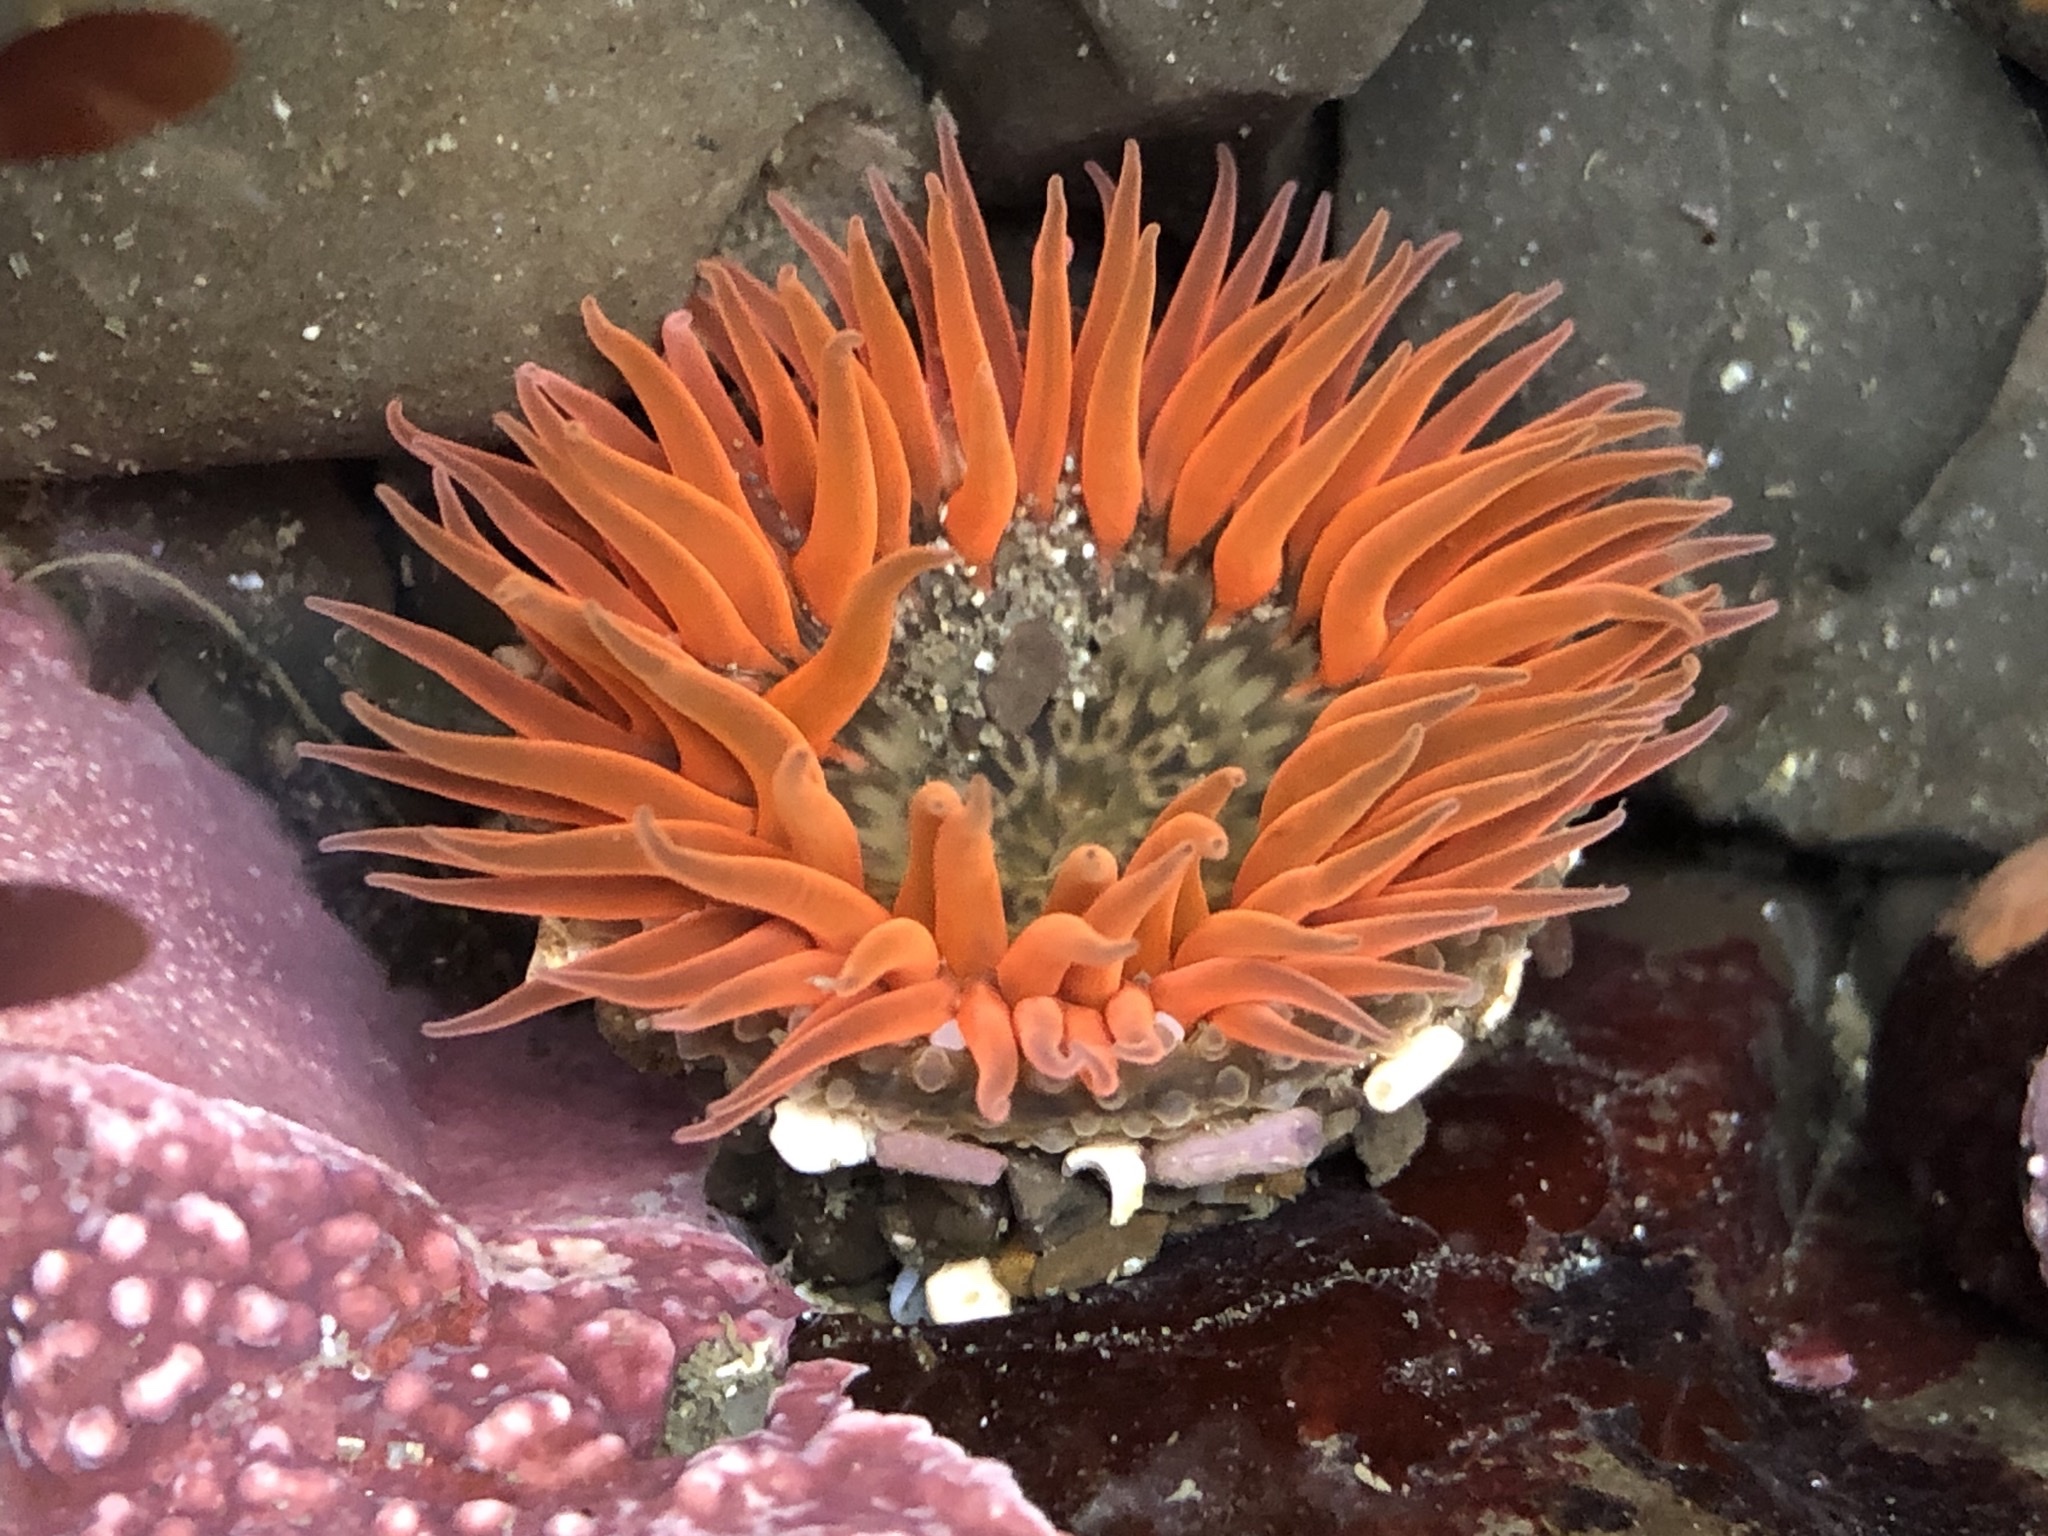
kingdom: Animalia
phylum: Cnidaria
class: Anthozoa
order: Actiniaria
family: Actiniidae
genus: Anthopleura
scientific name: Anthopleura artemisia
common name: Buried sea anemone
